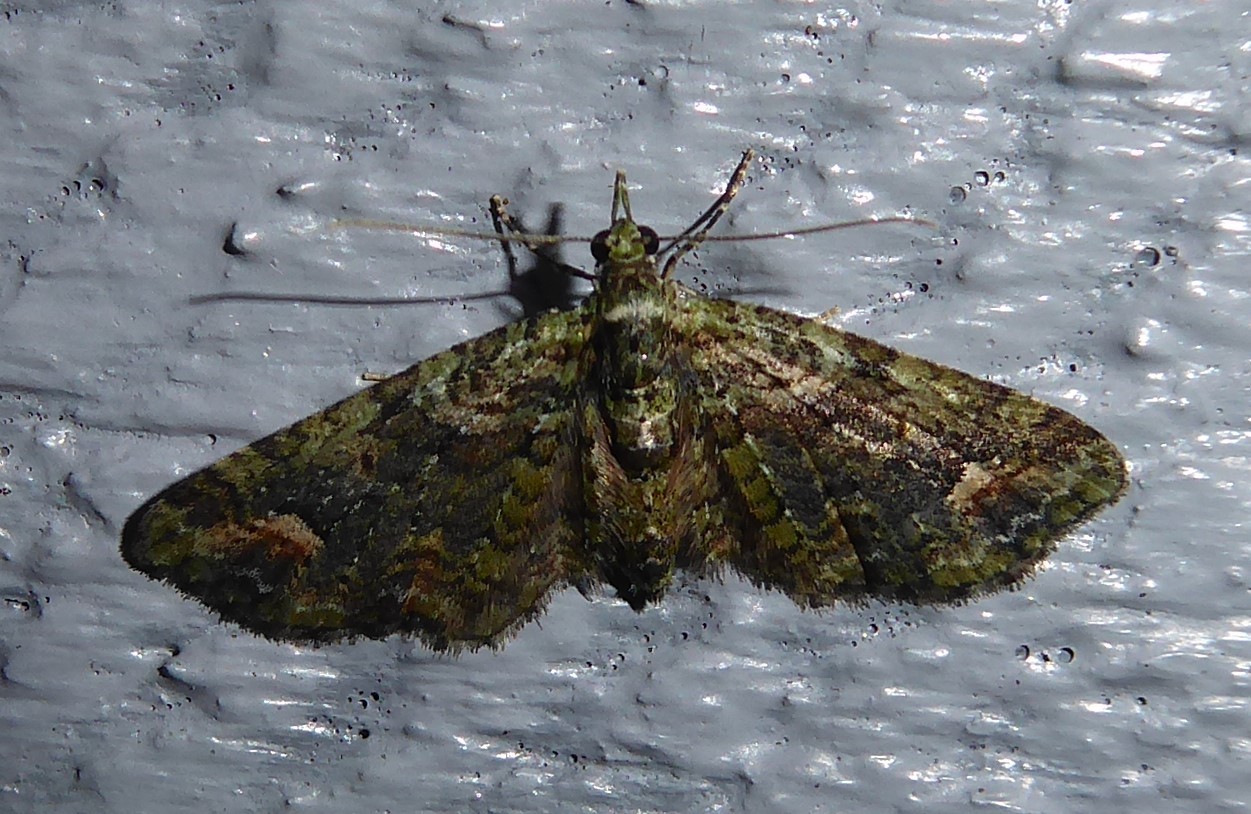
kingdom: Animalia
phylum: Arthropoda
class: Insecta
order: Lepidoptera
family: Geometridae
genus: Idaea
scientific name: Idaea mutanda
